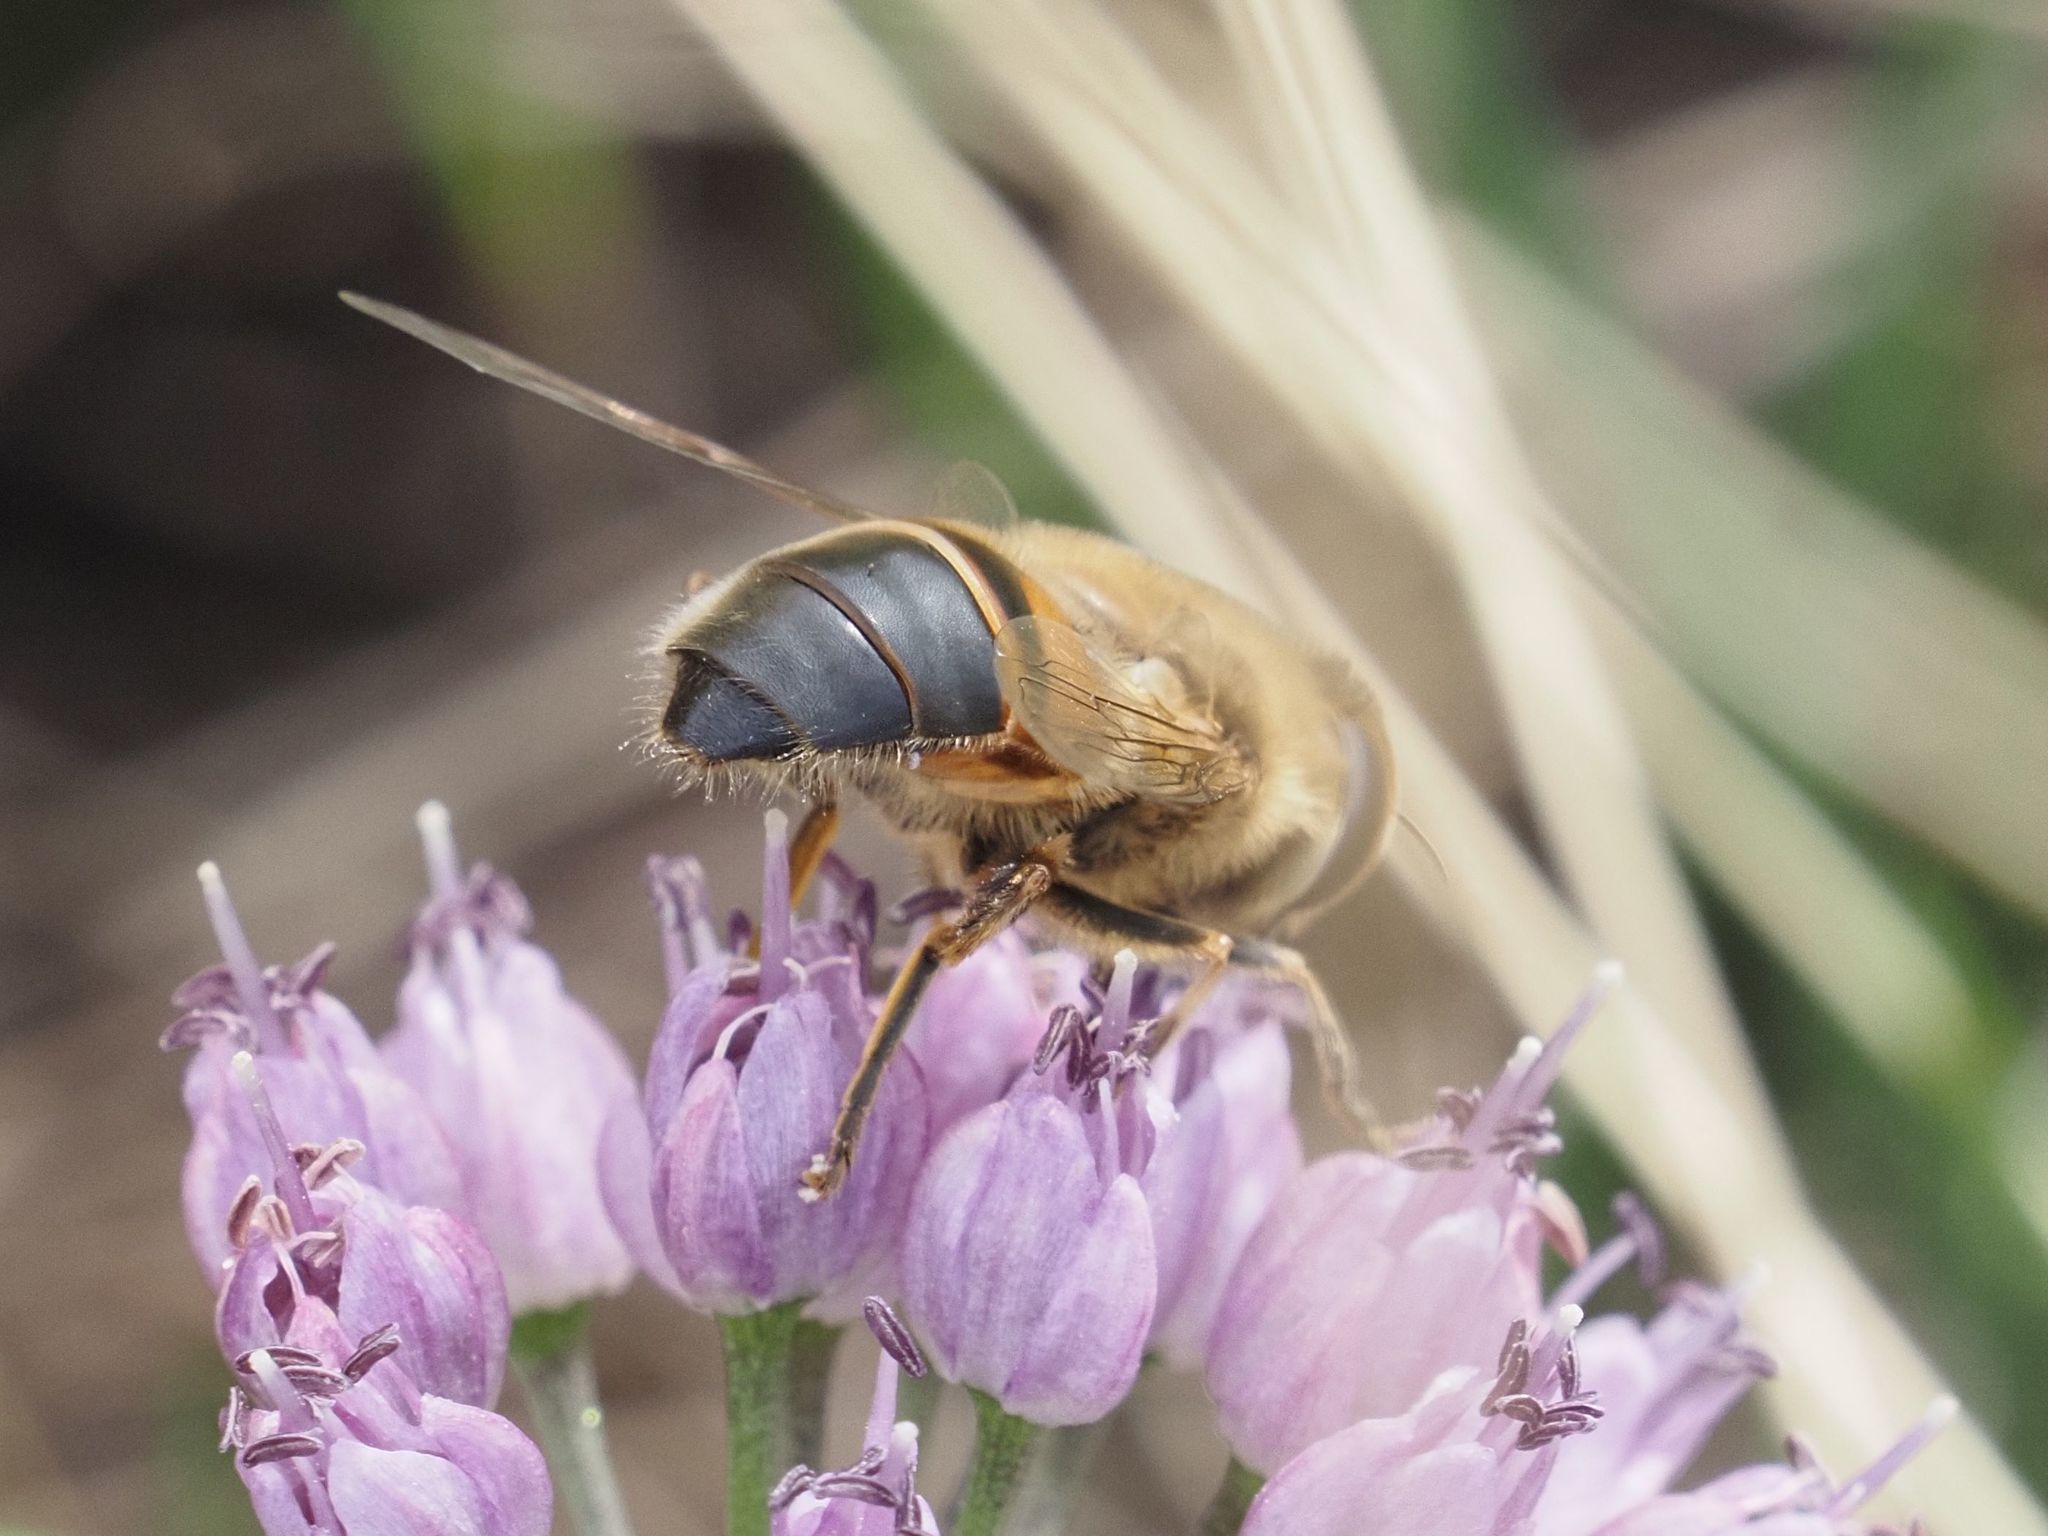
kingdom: Animalia
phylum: Arthropoda
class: Insecta
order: Diptera
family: Syrphidae
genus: Eristalis
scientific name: Eristalis tenax
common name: Drone fly
